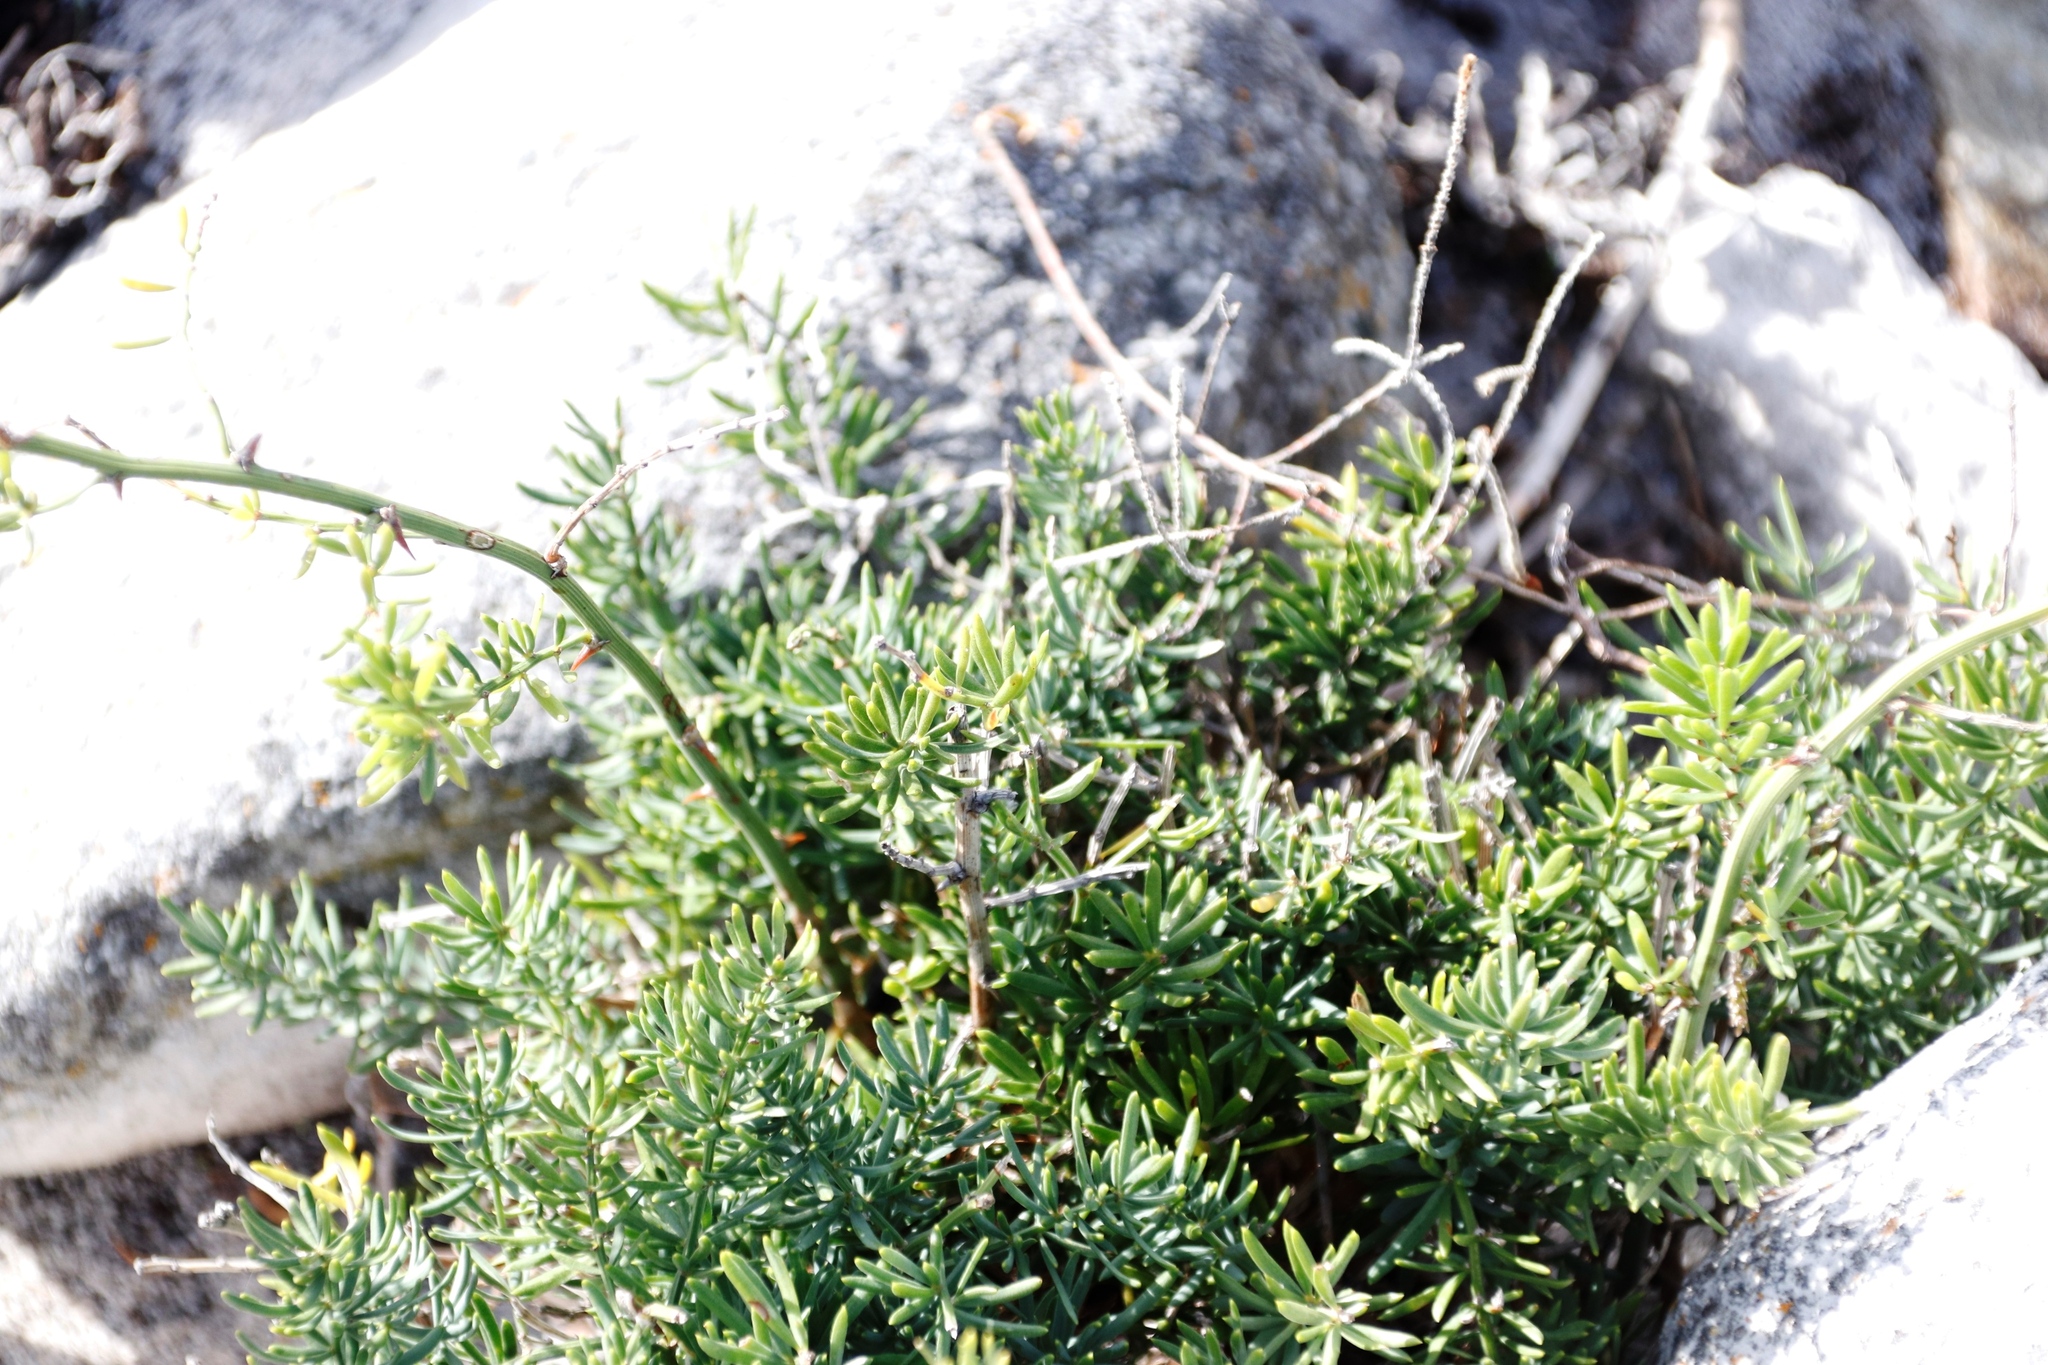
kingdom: Plantae
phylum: Tracheophyta
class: Liliopsida
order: Asparagales
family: Asparagaceae
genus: Asparagus
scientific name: Asparagus aethiopicus
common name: Sprenger's asparagus fern
